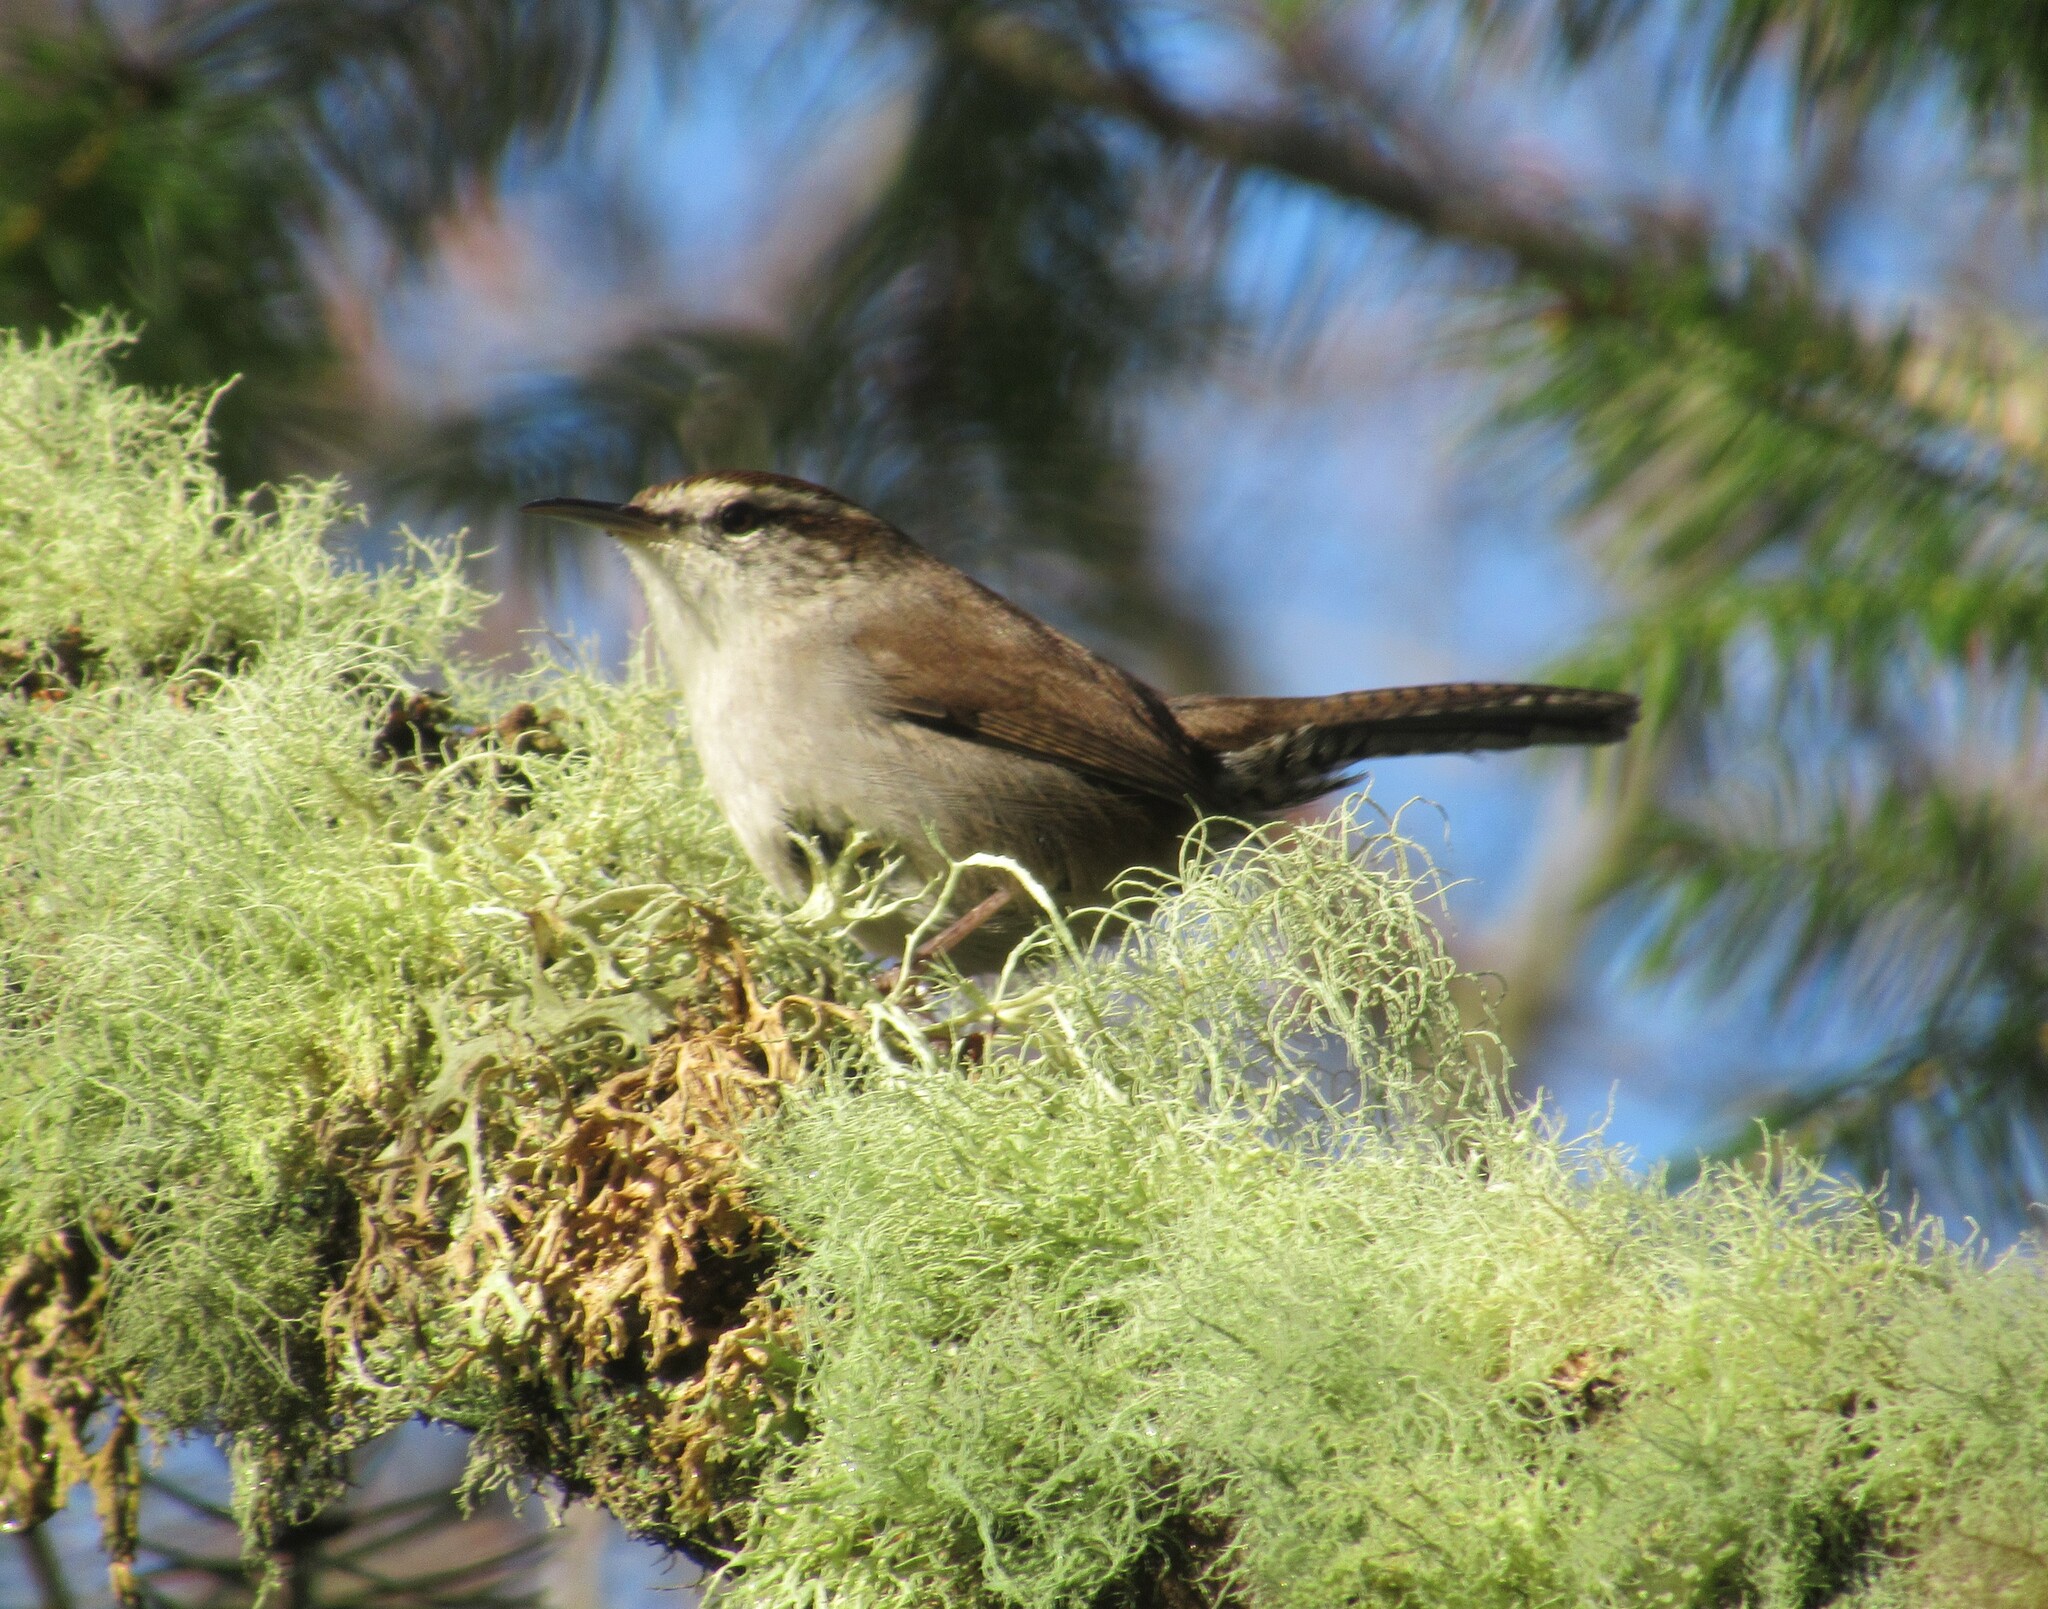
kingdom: Animalia
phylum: Chordata
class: Aves
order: Passeriformes
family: Troglodytidae
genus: Thryomanes
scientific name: Thryomanes bewickii
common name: Bewick's wren
